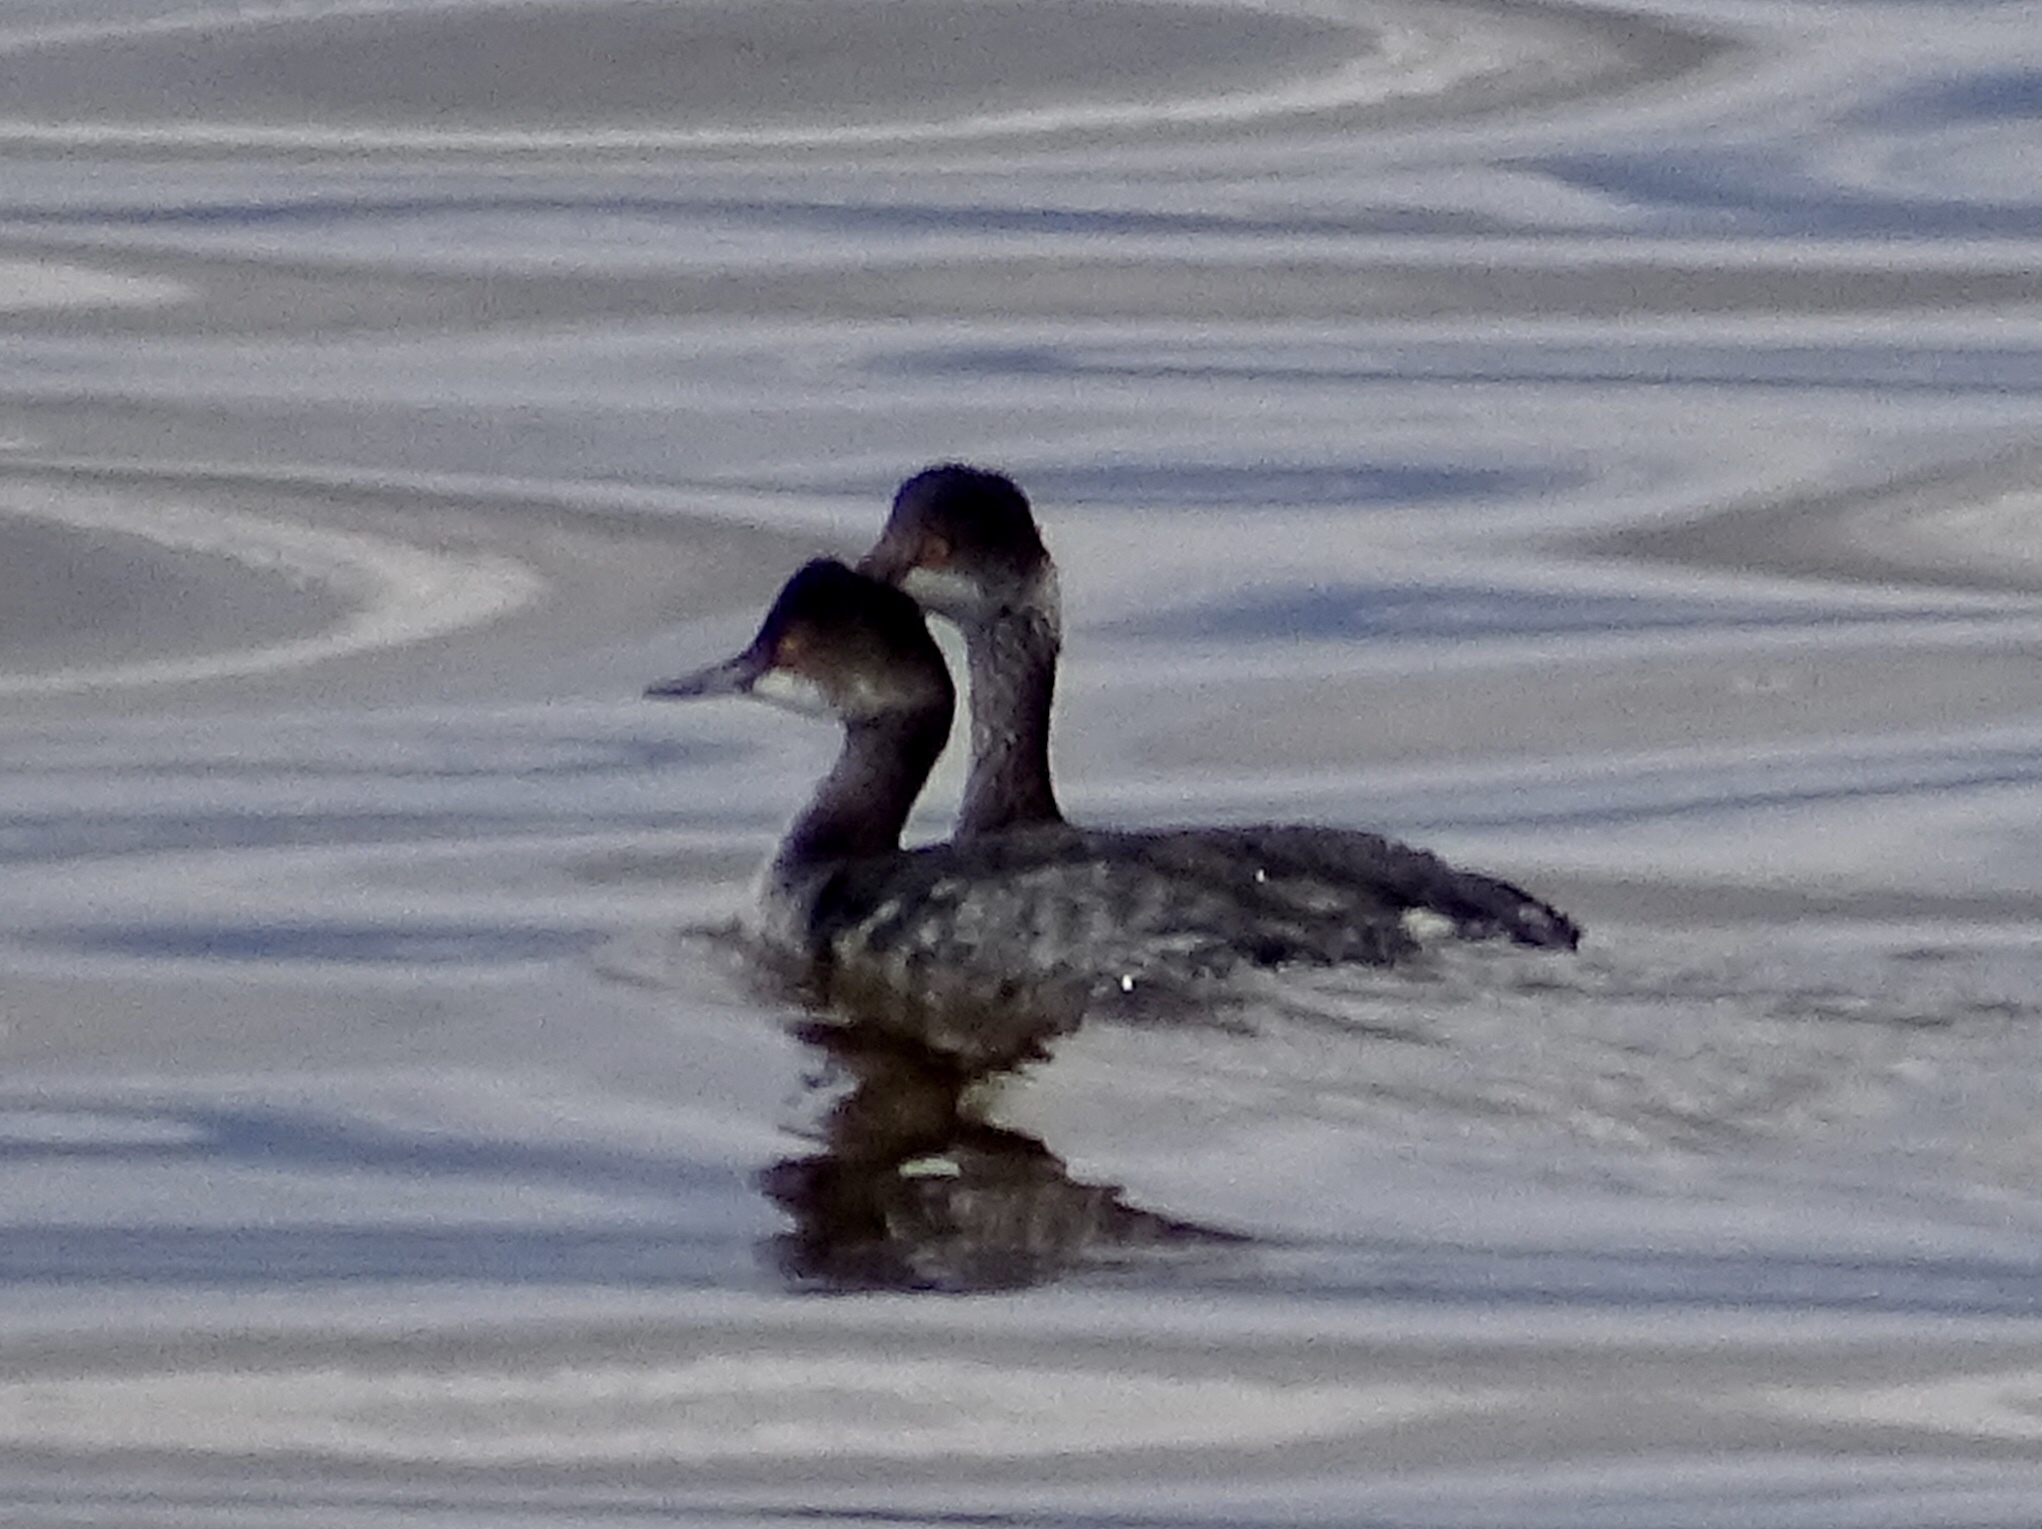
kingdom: Animalia
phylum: Chordata
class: Aves
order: Podicipediformes
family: Podicipedidae
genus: Podiceps
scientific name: Podiceps nigricollis
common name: Black-necked grebe
